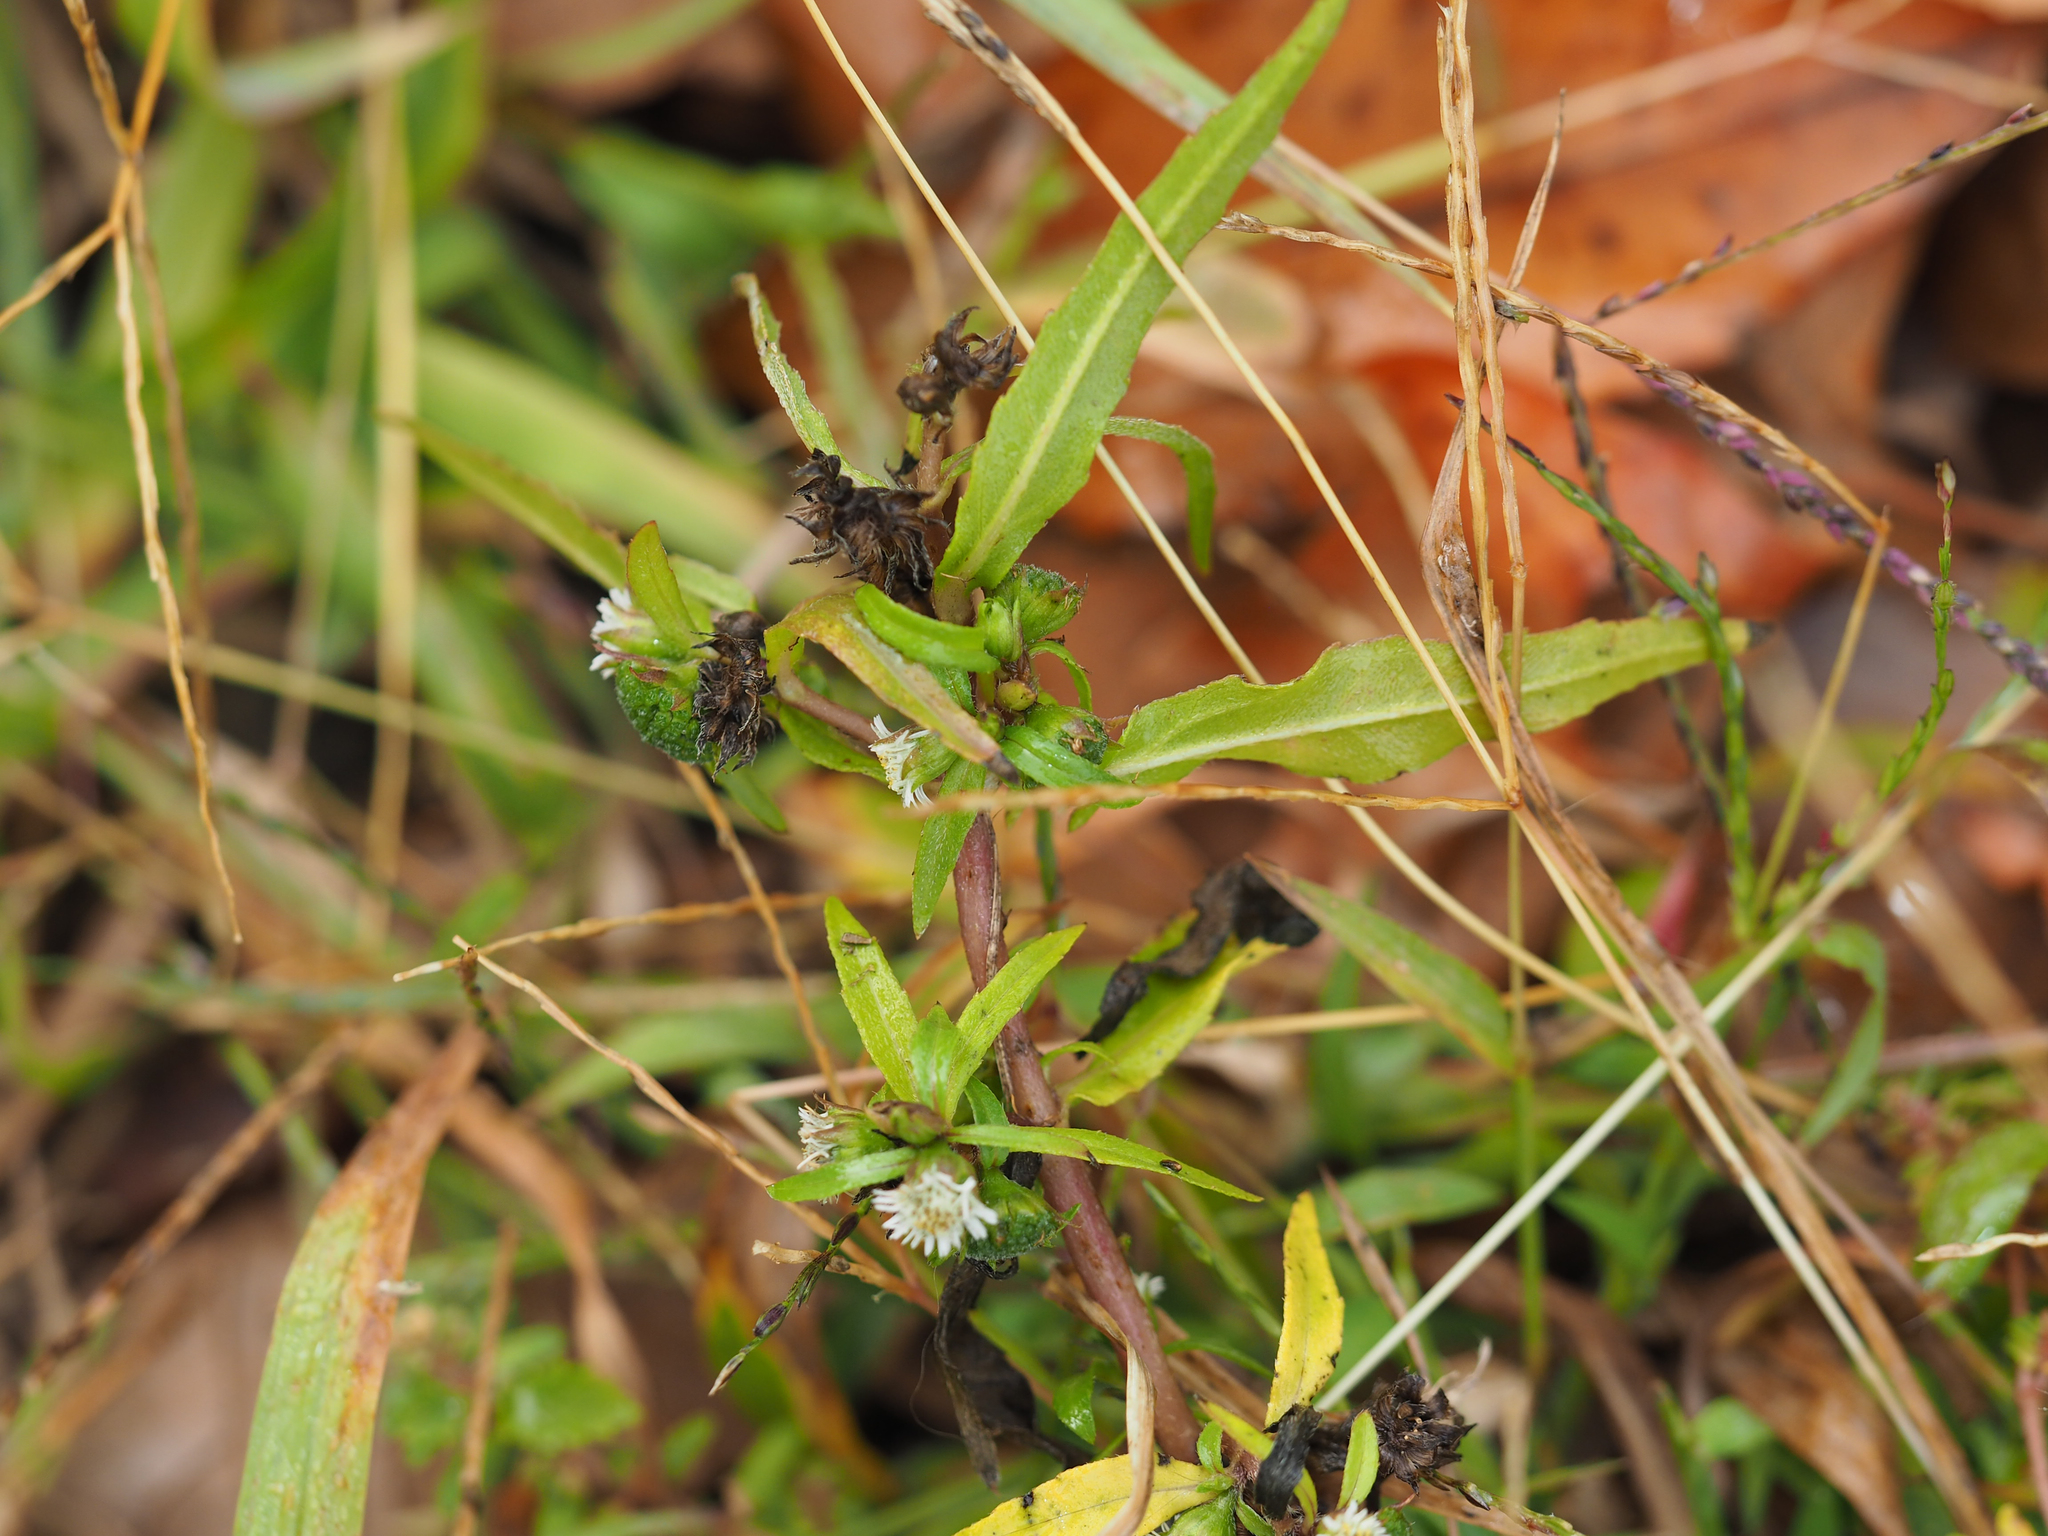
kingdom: Plantae
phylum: Tracheophyta
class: Magnoliopsida
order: Asterales
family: Asteraceae
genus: Eclipta
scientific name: Eclipta prostrata
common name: False daisy
